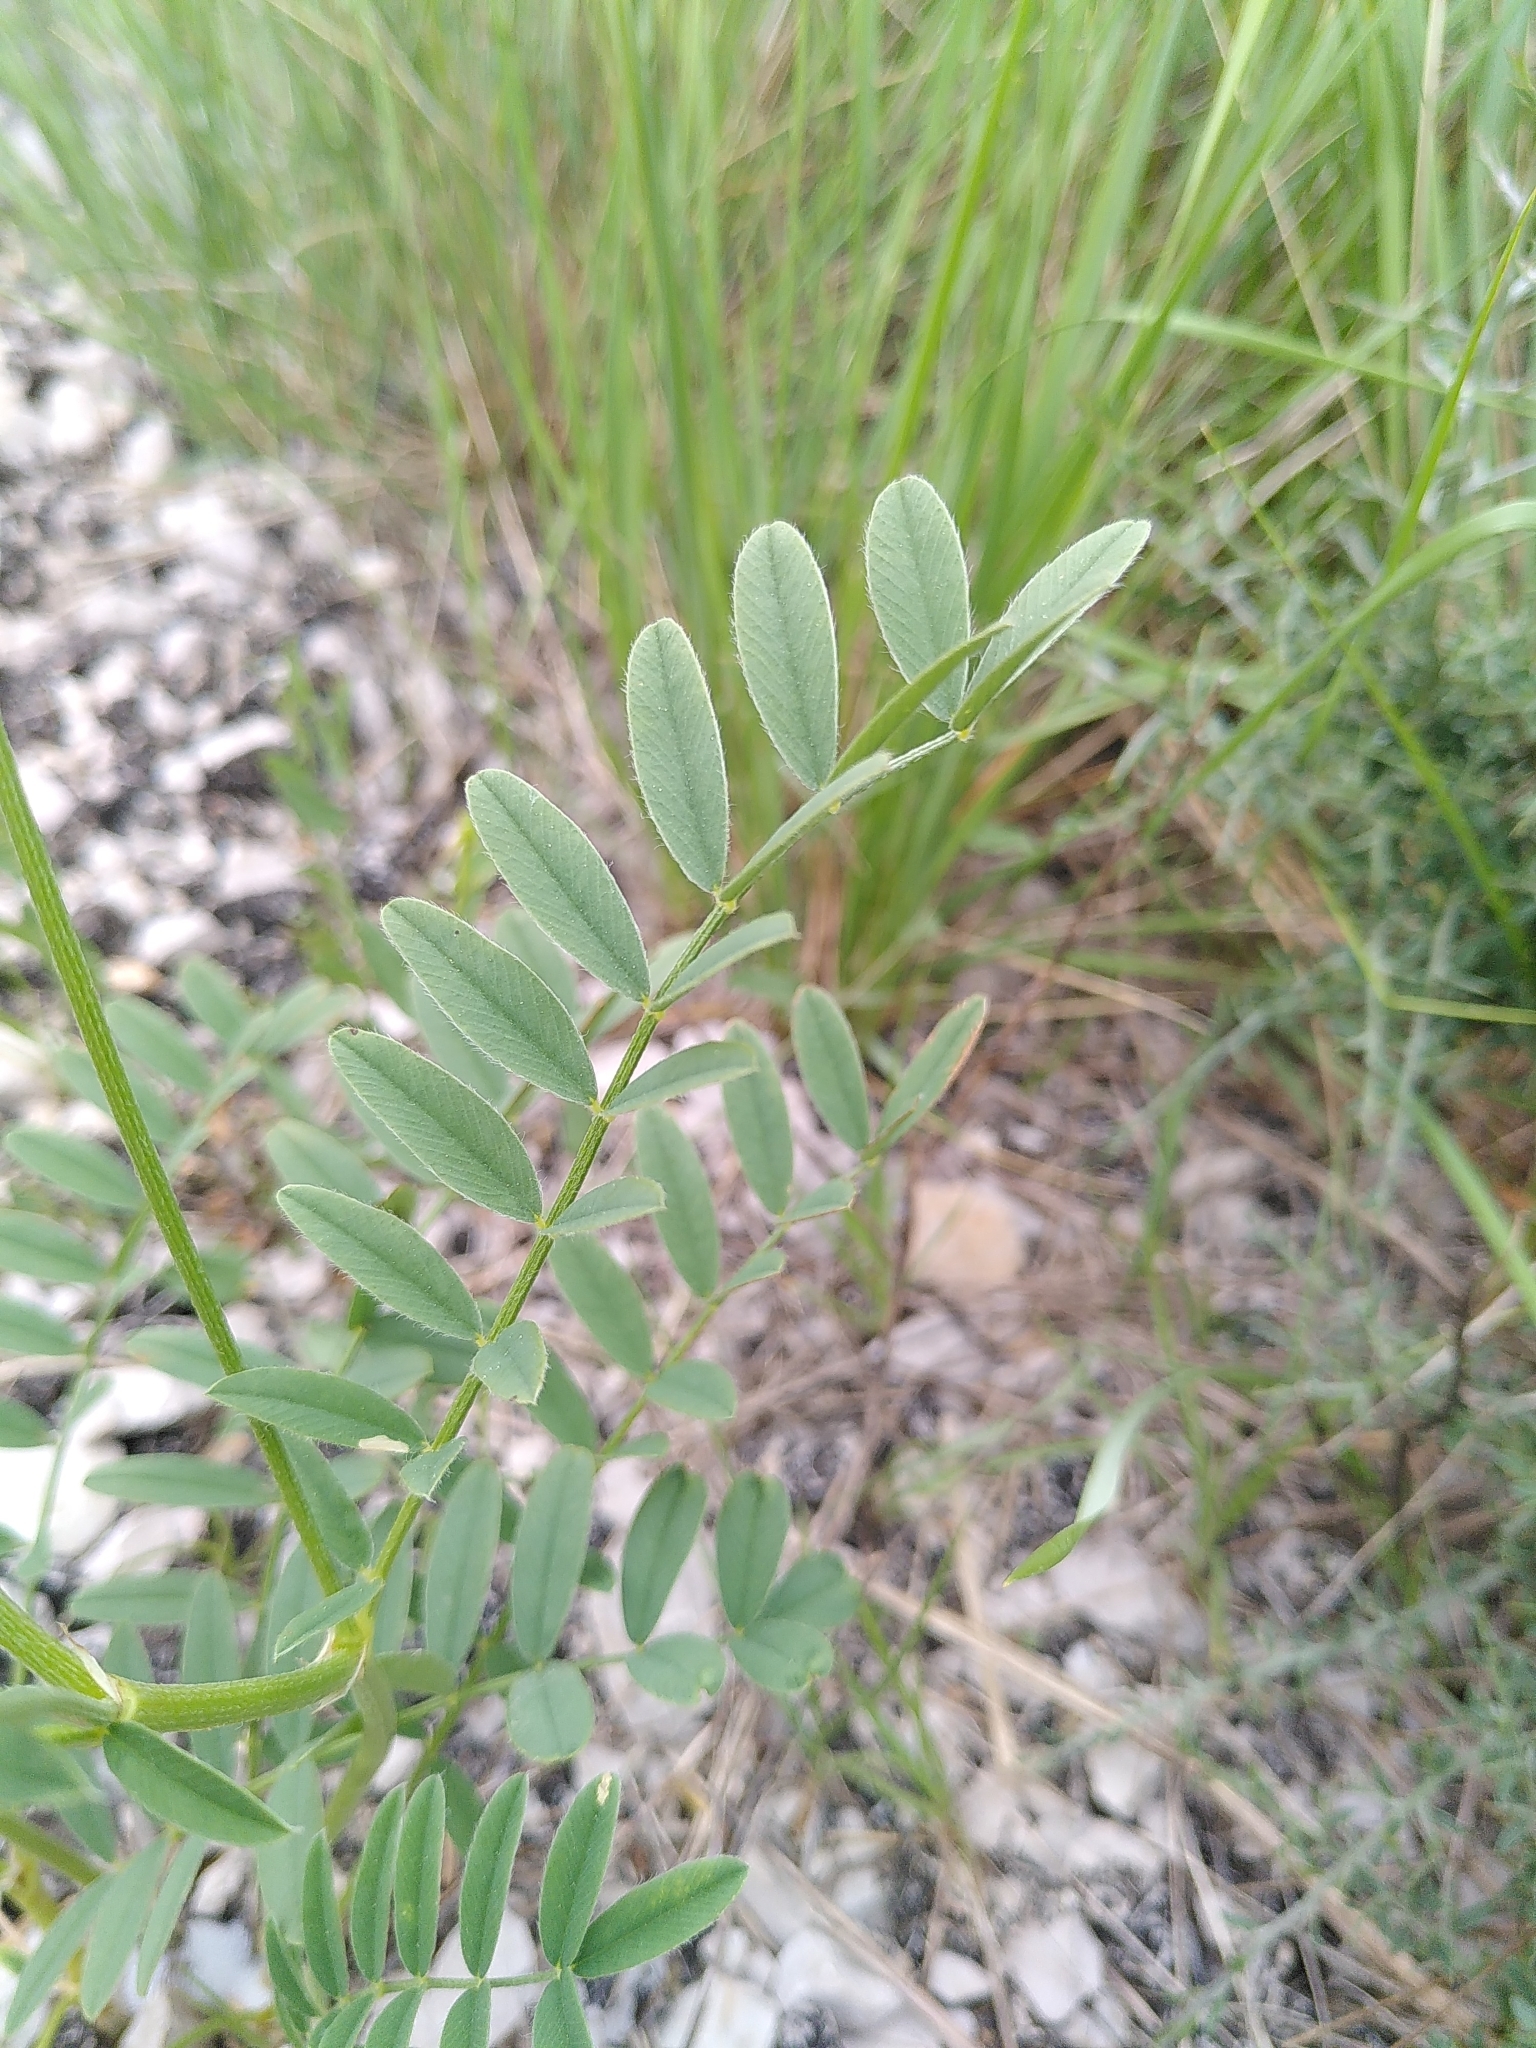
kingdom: Plantae
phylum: Tracheophyta
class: Magnoliopsida
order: Fabales
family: Fabaceae
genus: Onobrychis
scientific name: Onobrychis viciifolia
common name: Sainfoin
